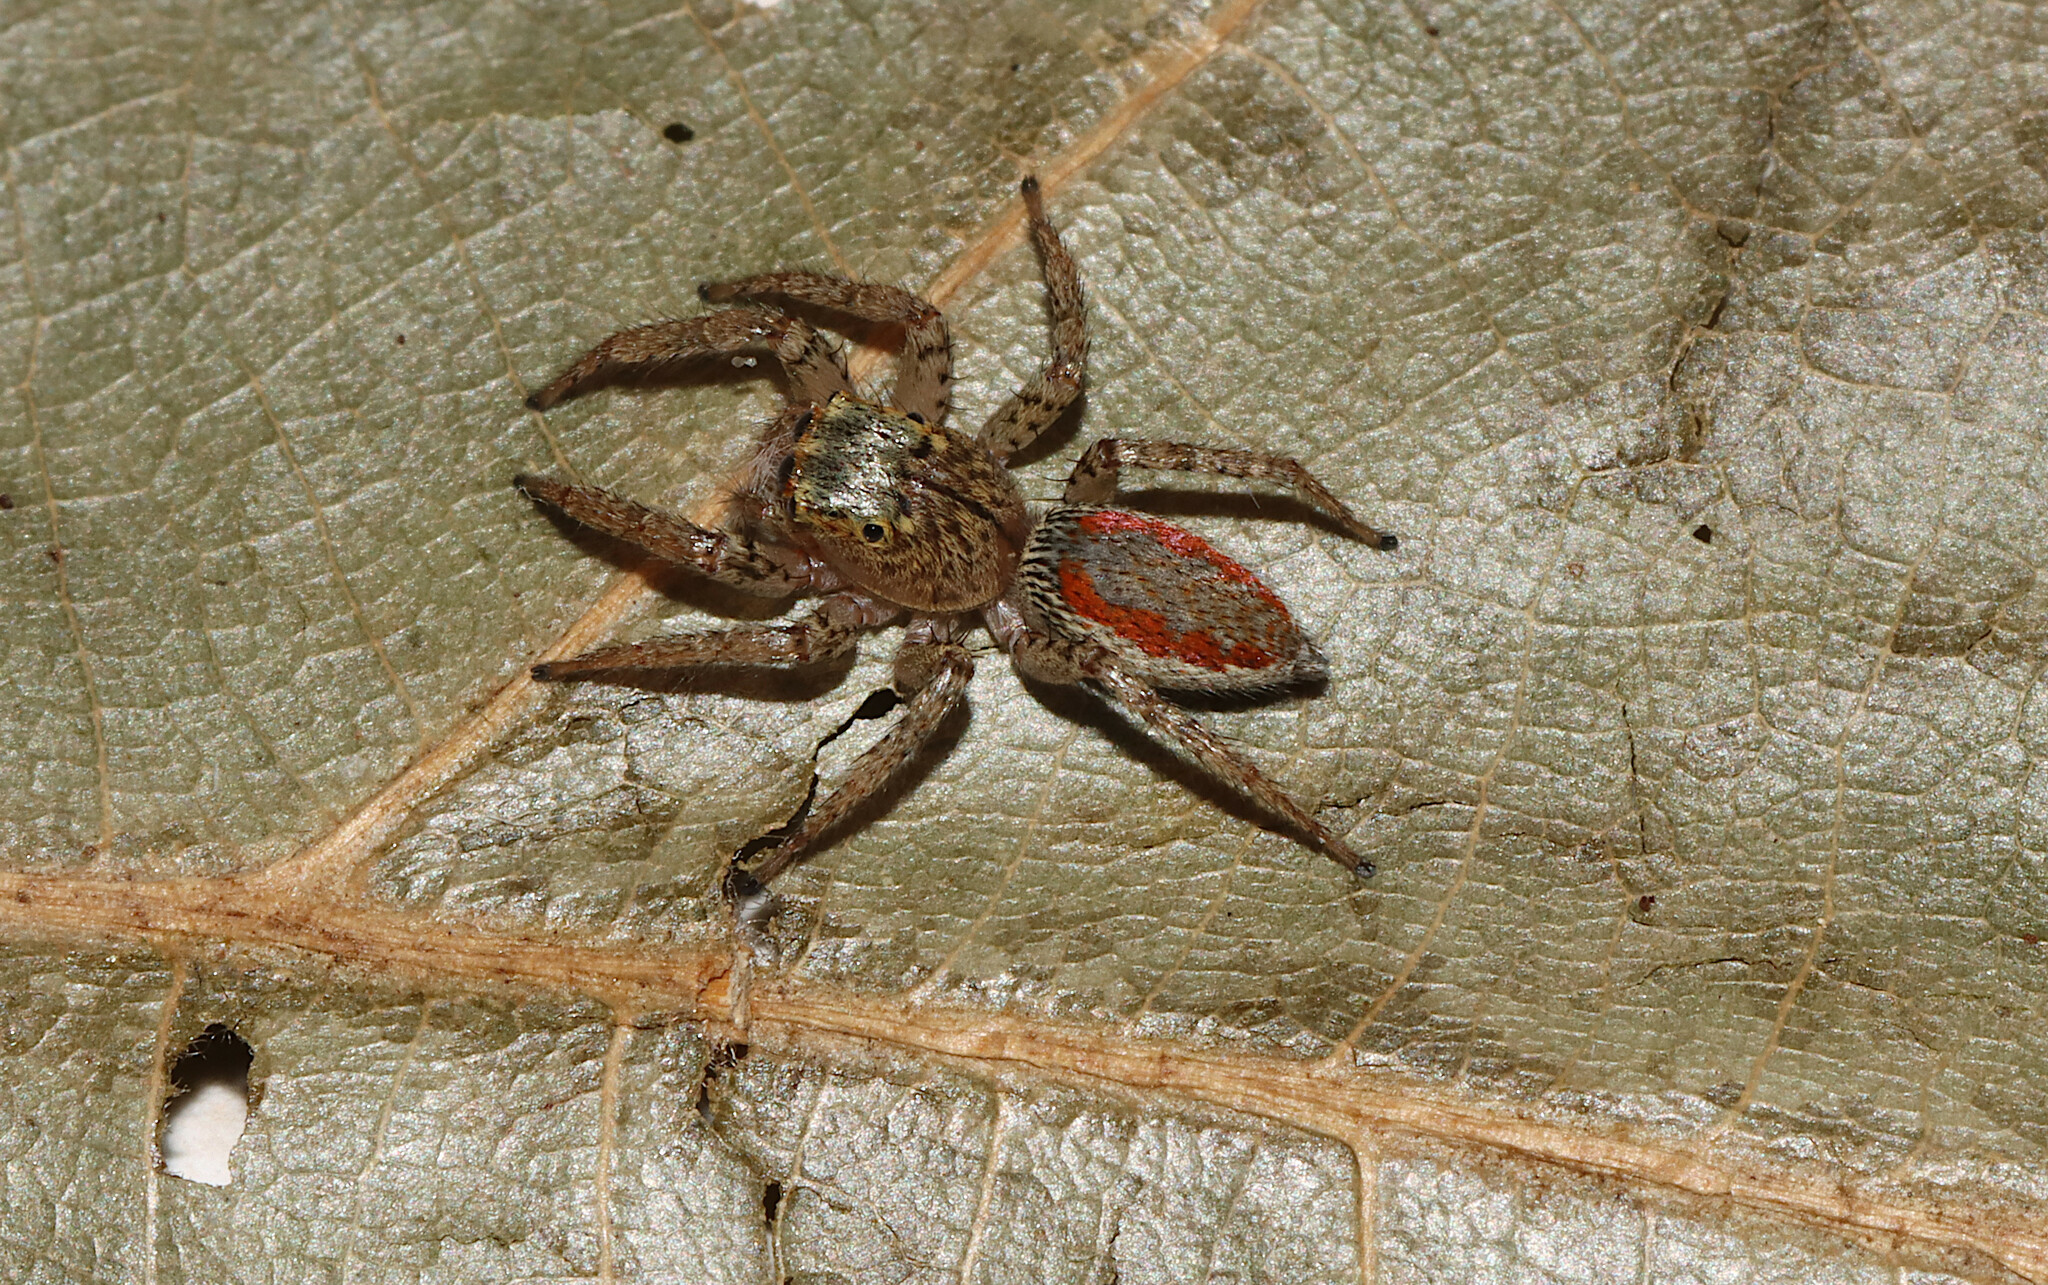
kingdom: Animalia
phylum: Arthropoda
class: Arachnida
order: Araneae
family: Salticidae
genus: Maevia
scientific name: Maevia inclemens
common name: Dimorphic jumper
